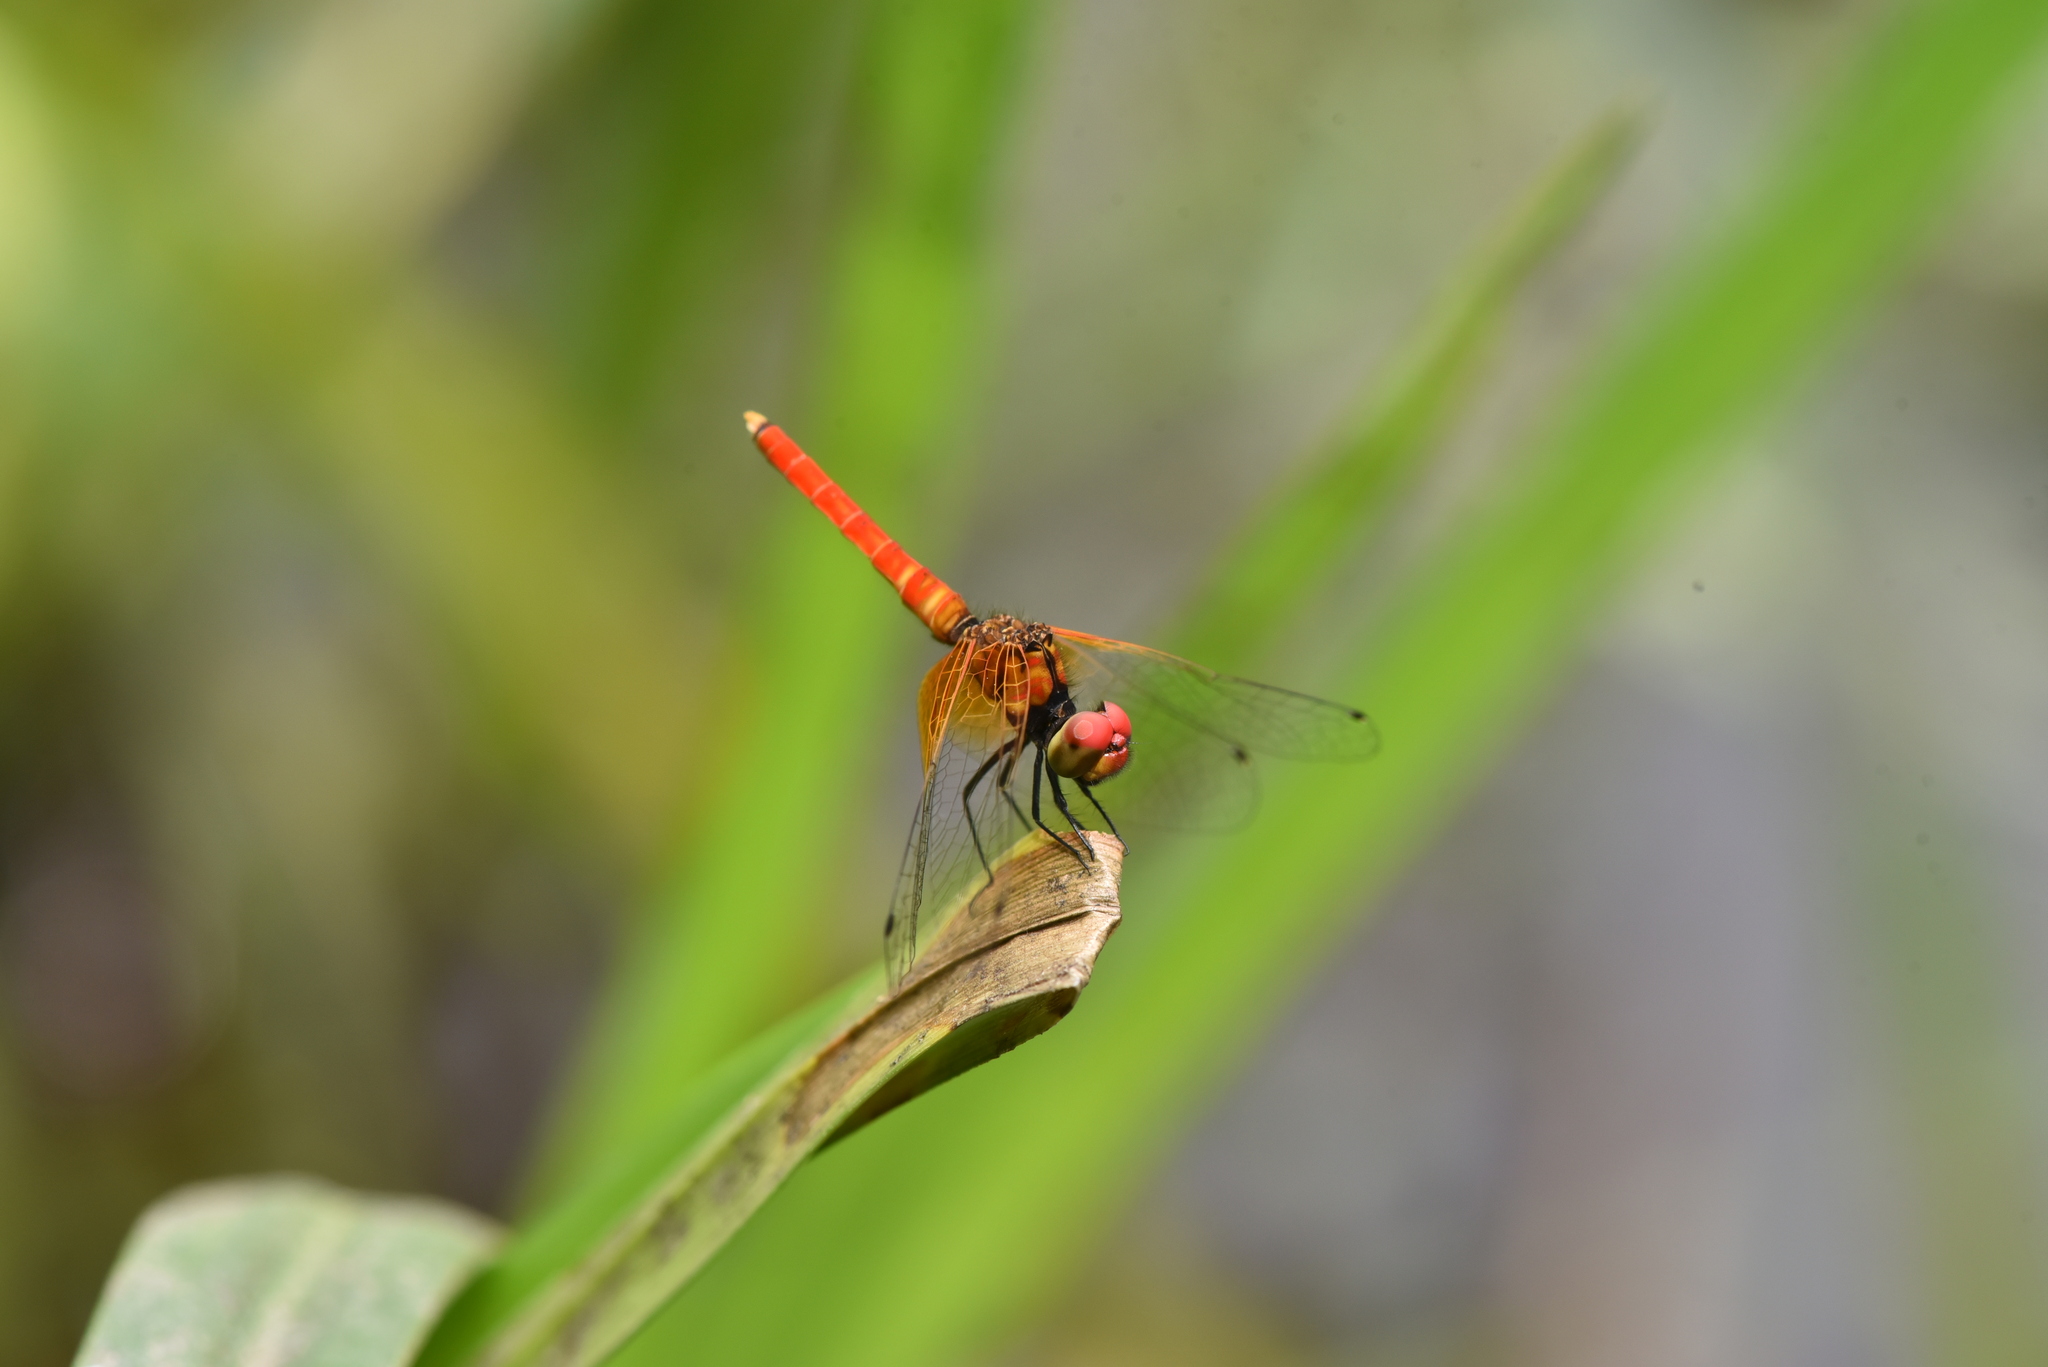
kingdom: Animalia
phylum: Arthropoda
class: Insecta
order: Odonata
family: Libellulidae
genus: Nannophya
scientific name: Nannophya pygmaea
